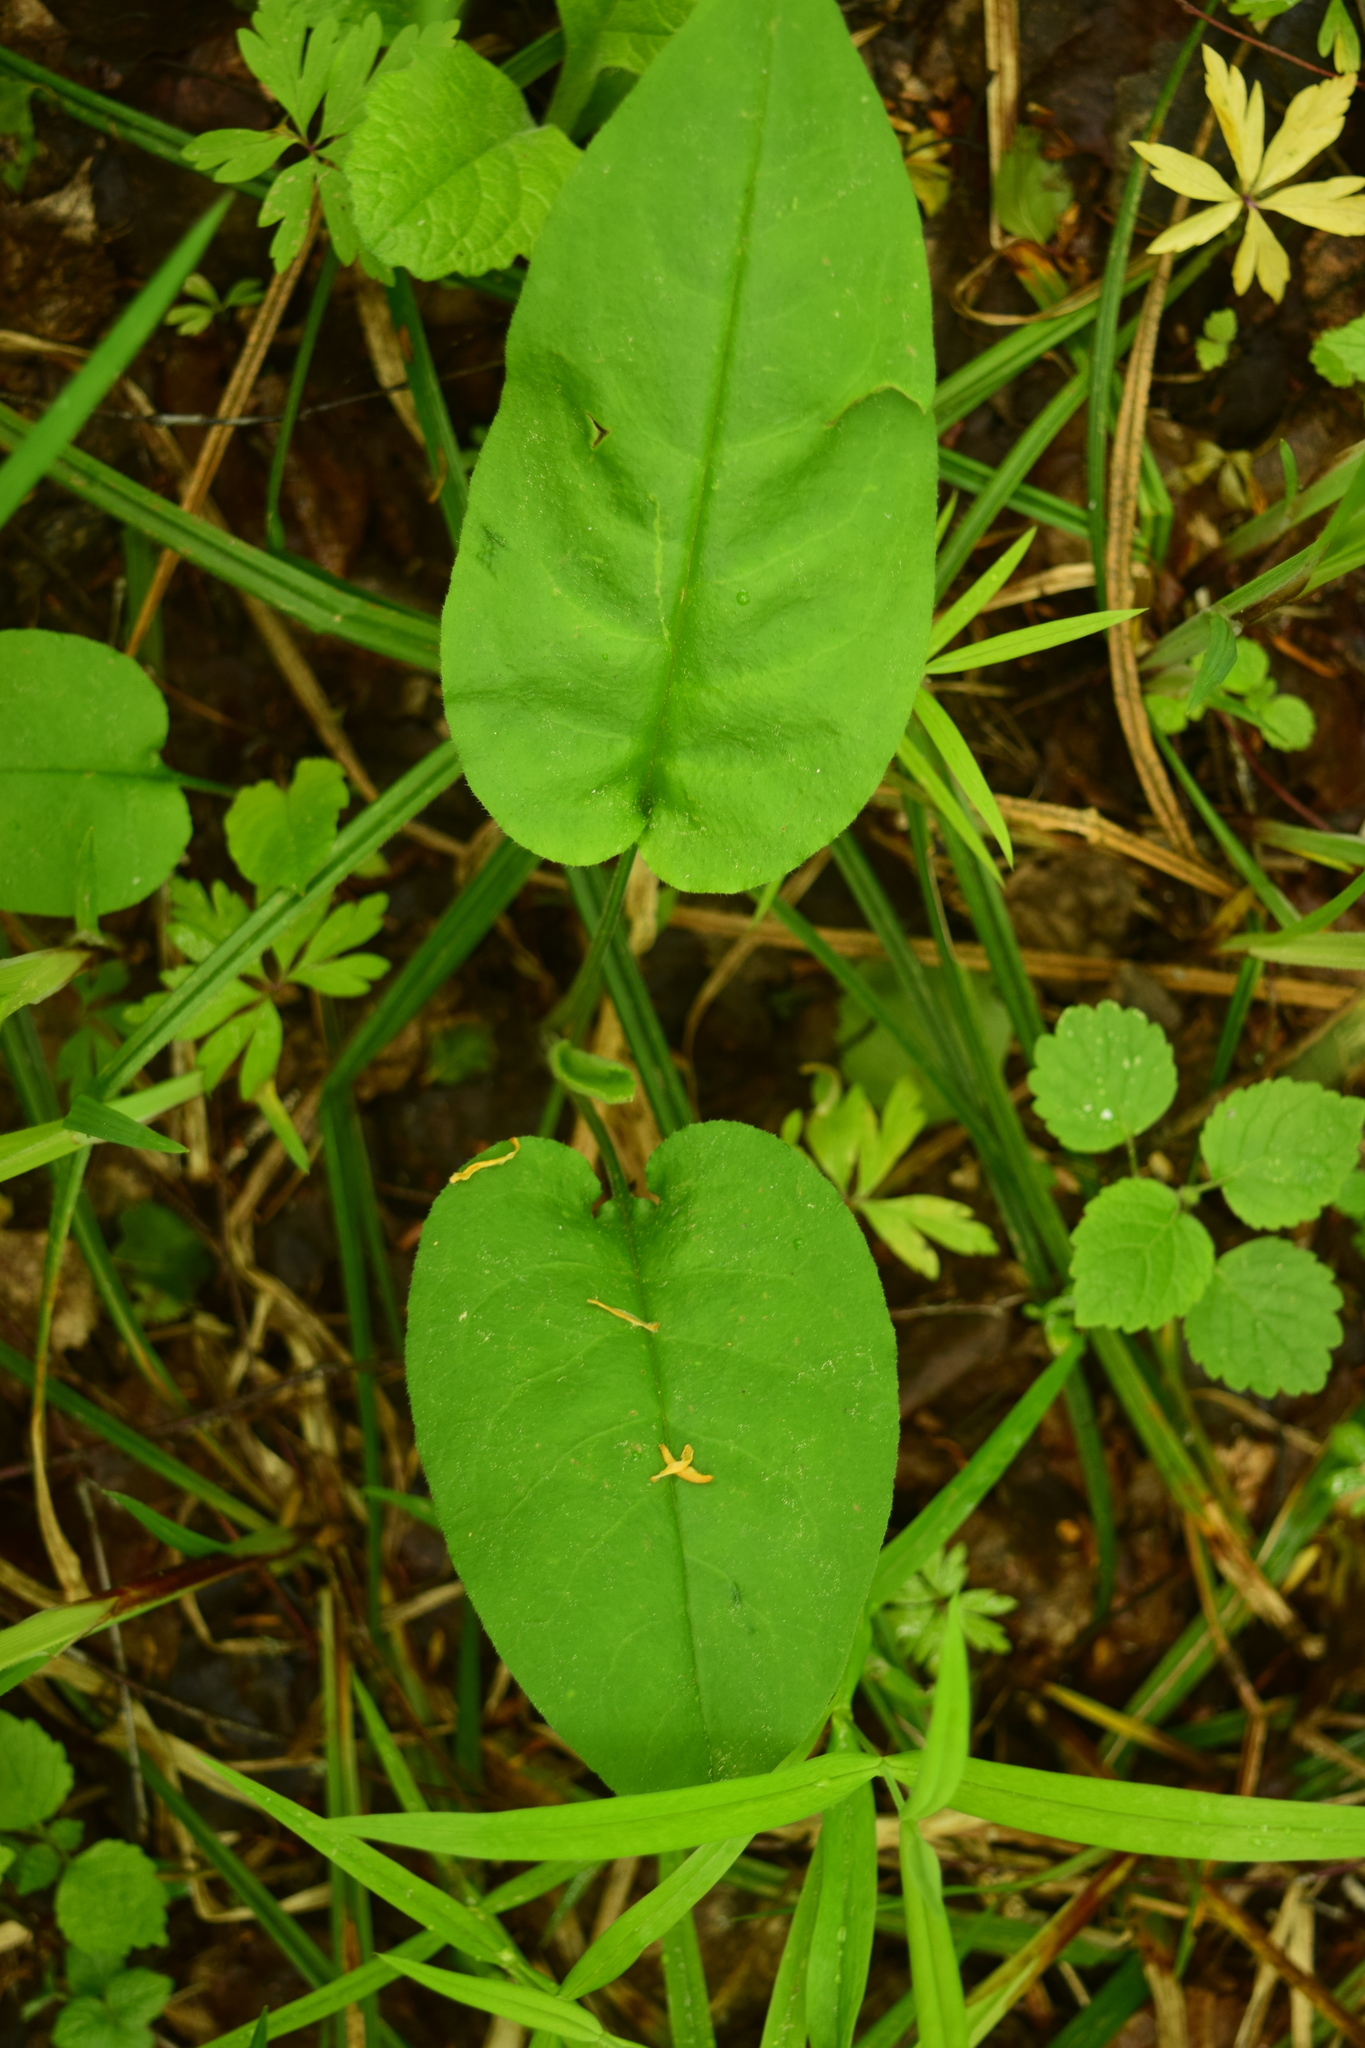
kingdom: Plantae
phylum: Tracheophyta
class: Magnoliopsida
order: Boraginales
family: Boraginaceae
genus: Pulmonaria
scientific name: Pulmonaria obscura
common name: Suffolk lungwort
